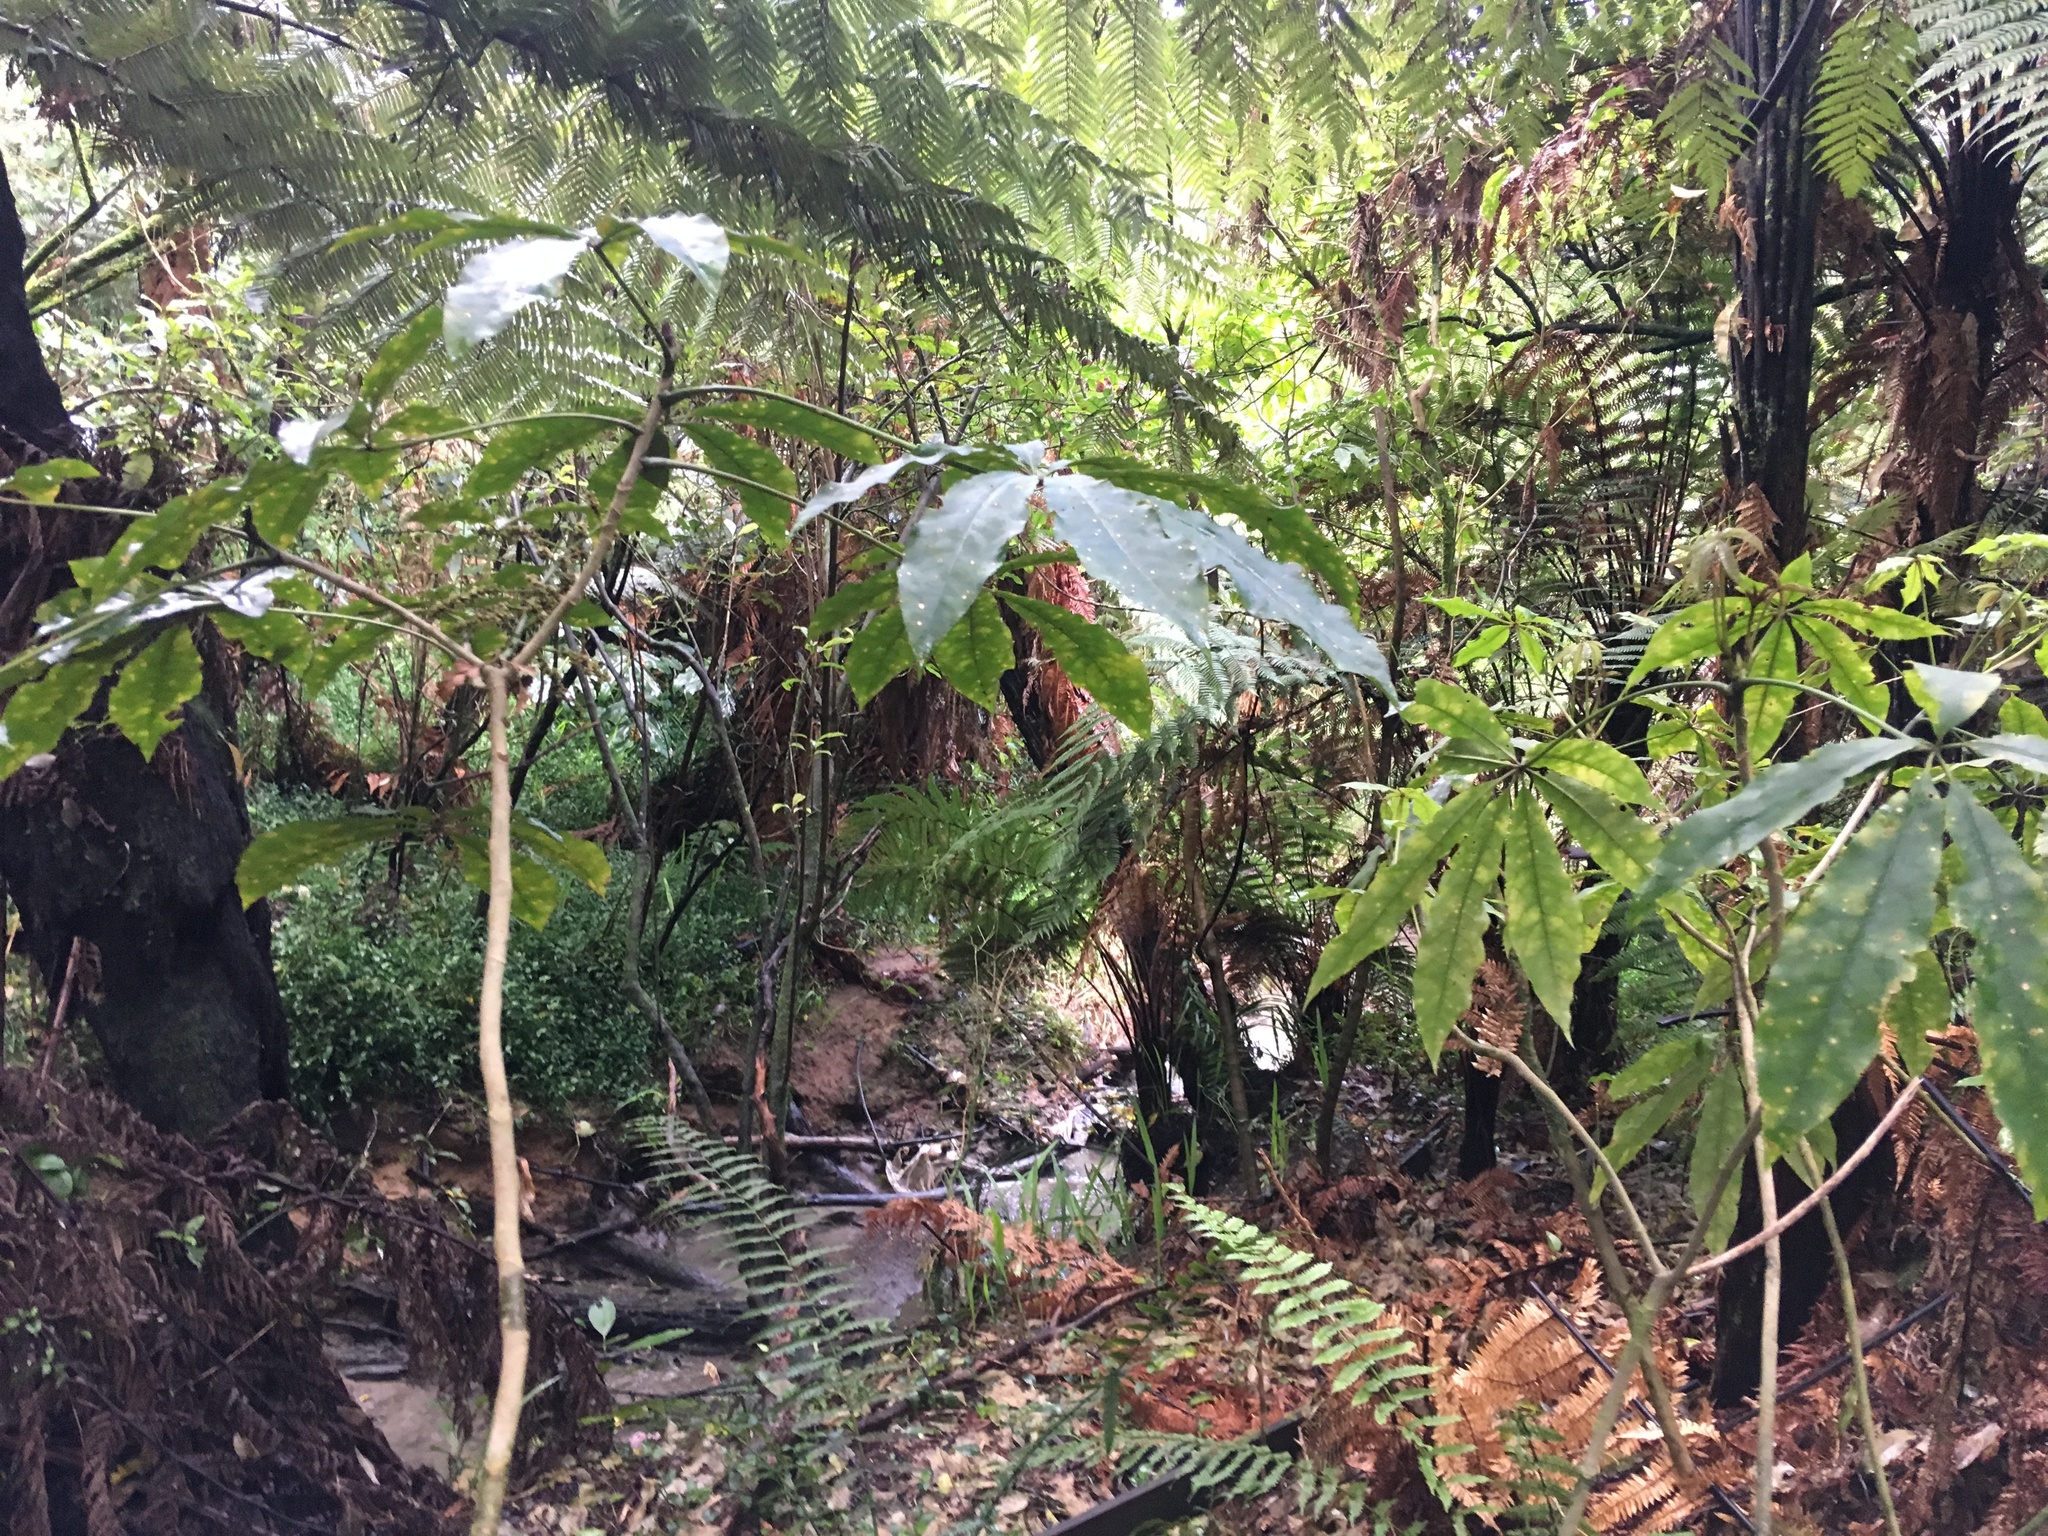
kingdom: Plantae
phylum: Tracheophyta
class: Magnoliopsida
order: Apiales
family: Araliaceae
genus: Schefflera
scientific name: Schefflera digitata
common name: Pate
